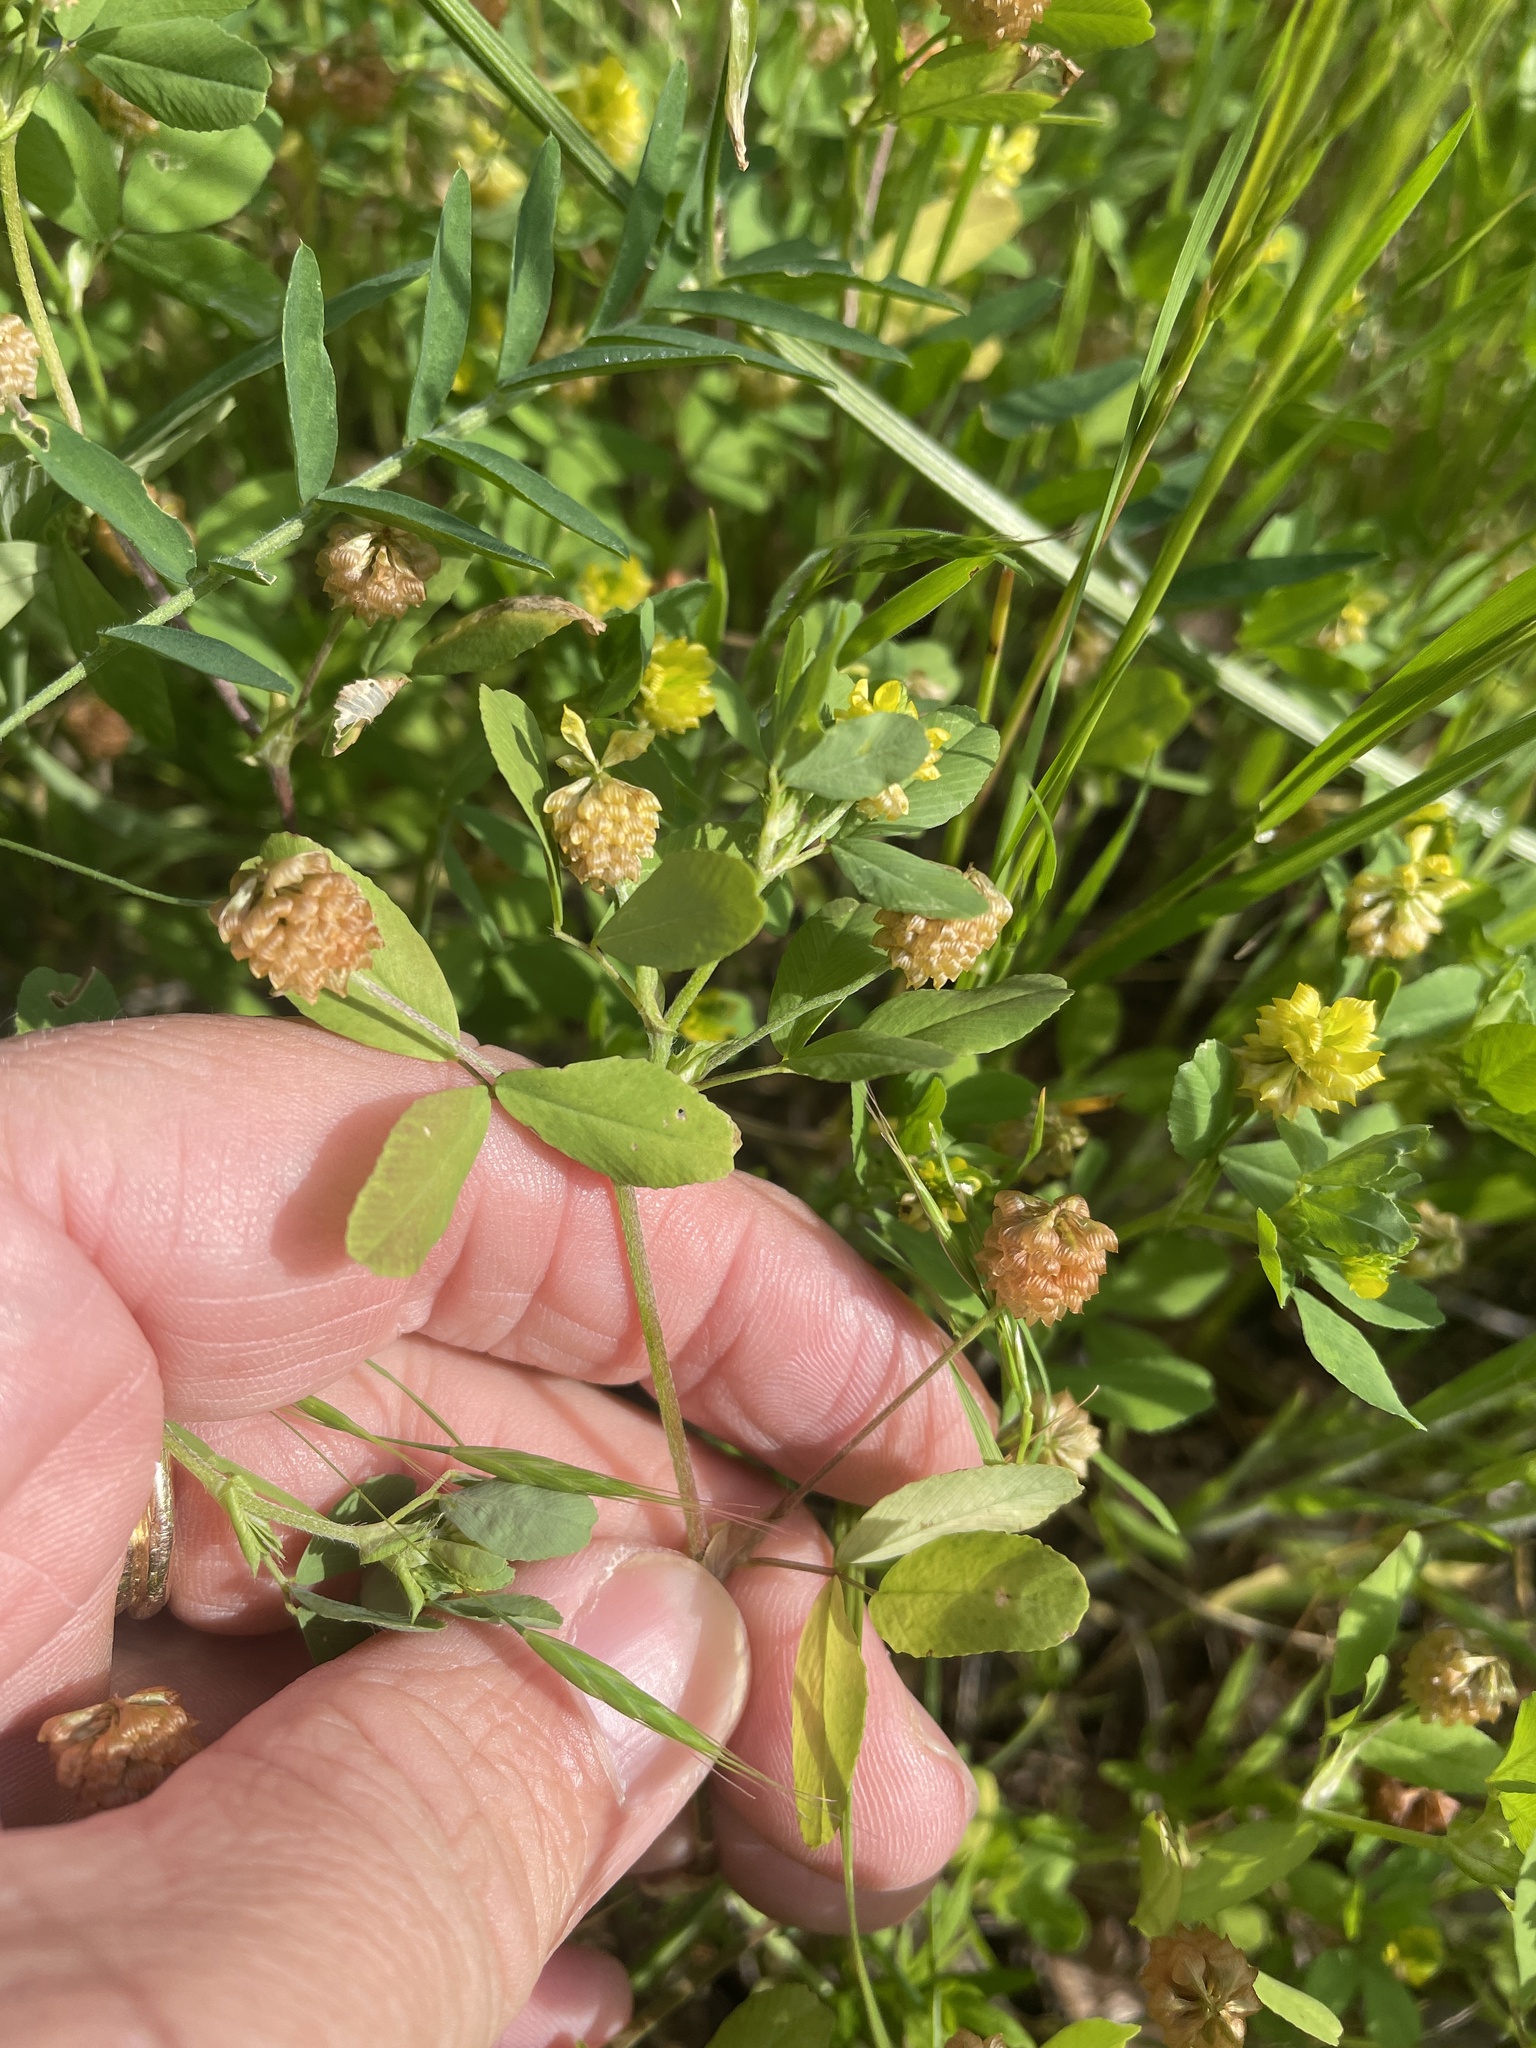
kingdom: Plantae
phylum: Tracheophyta
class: Magnoliopsida
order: Fabales
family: Fabaceae
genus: Trifolium
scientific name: Trifolium campestre
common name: Field clover
